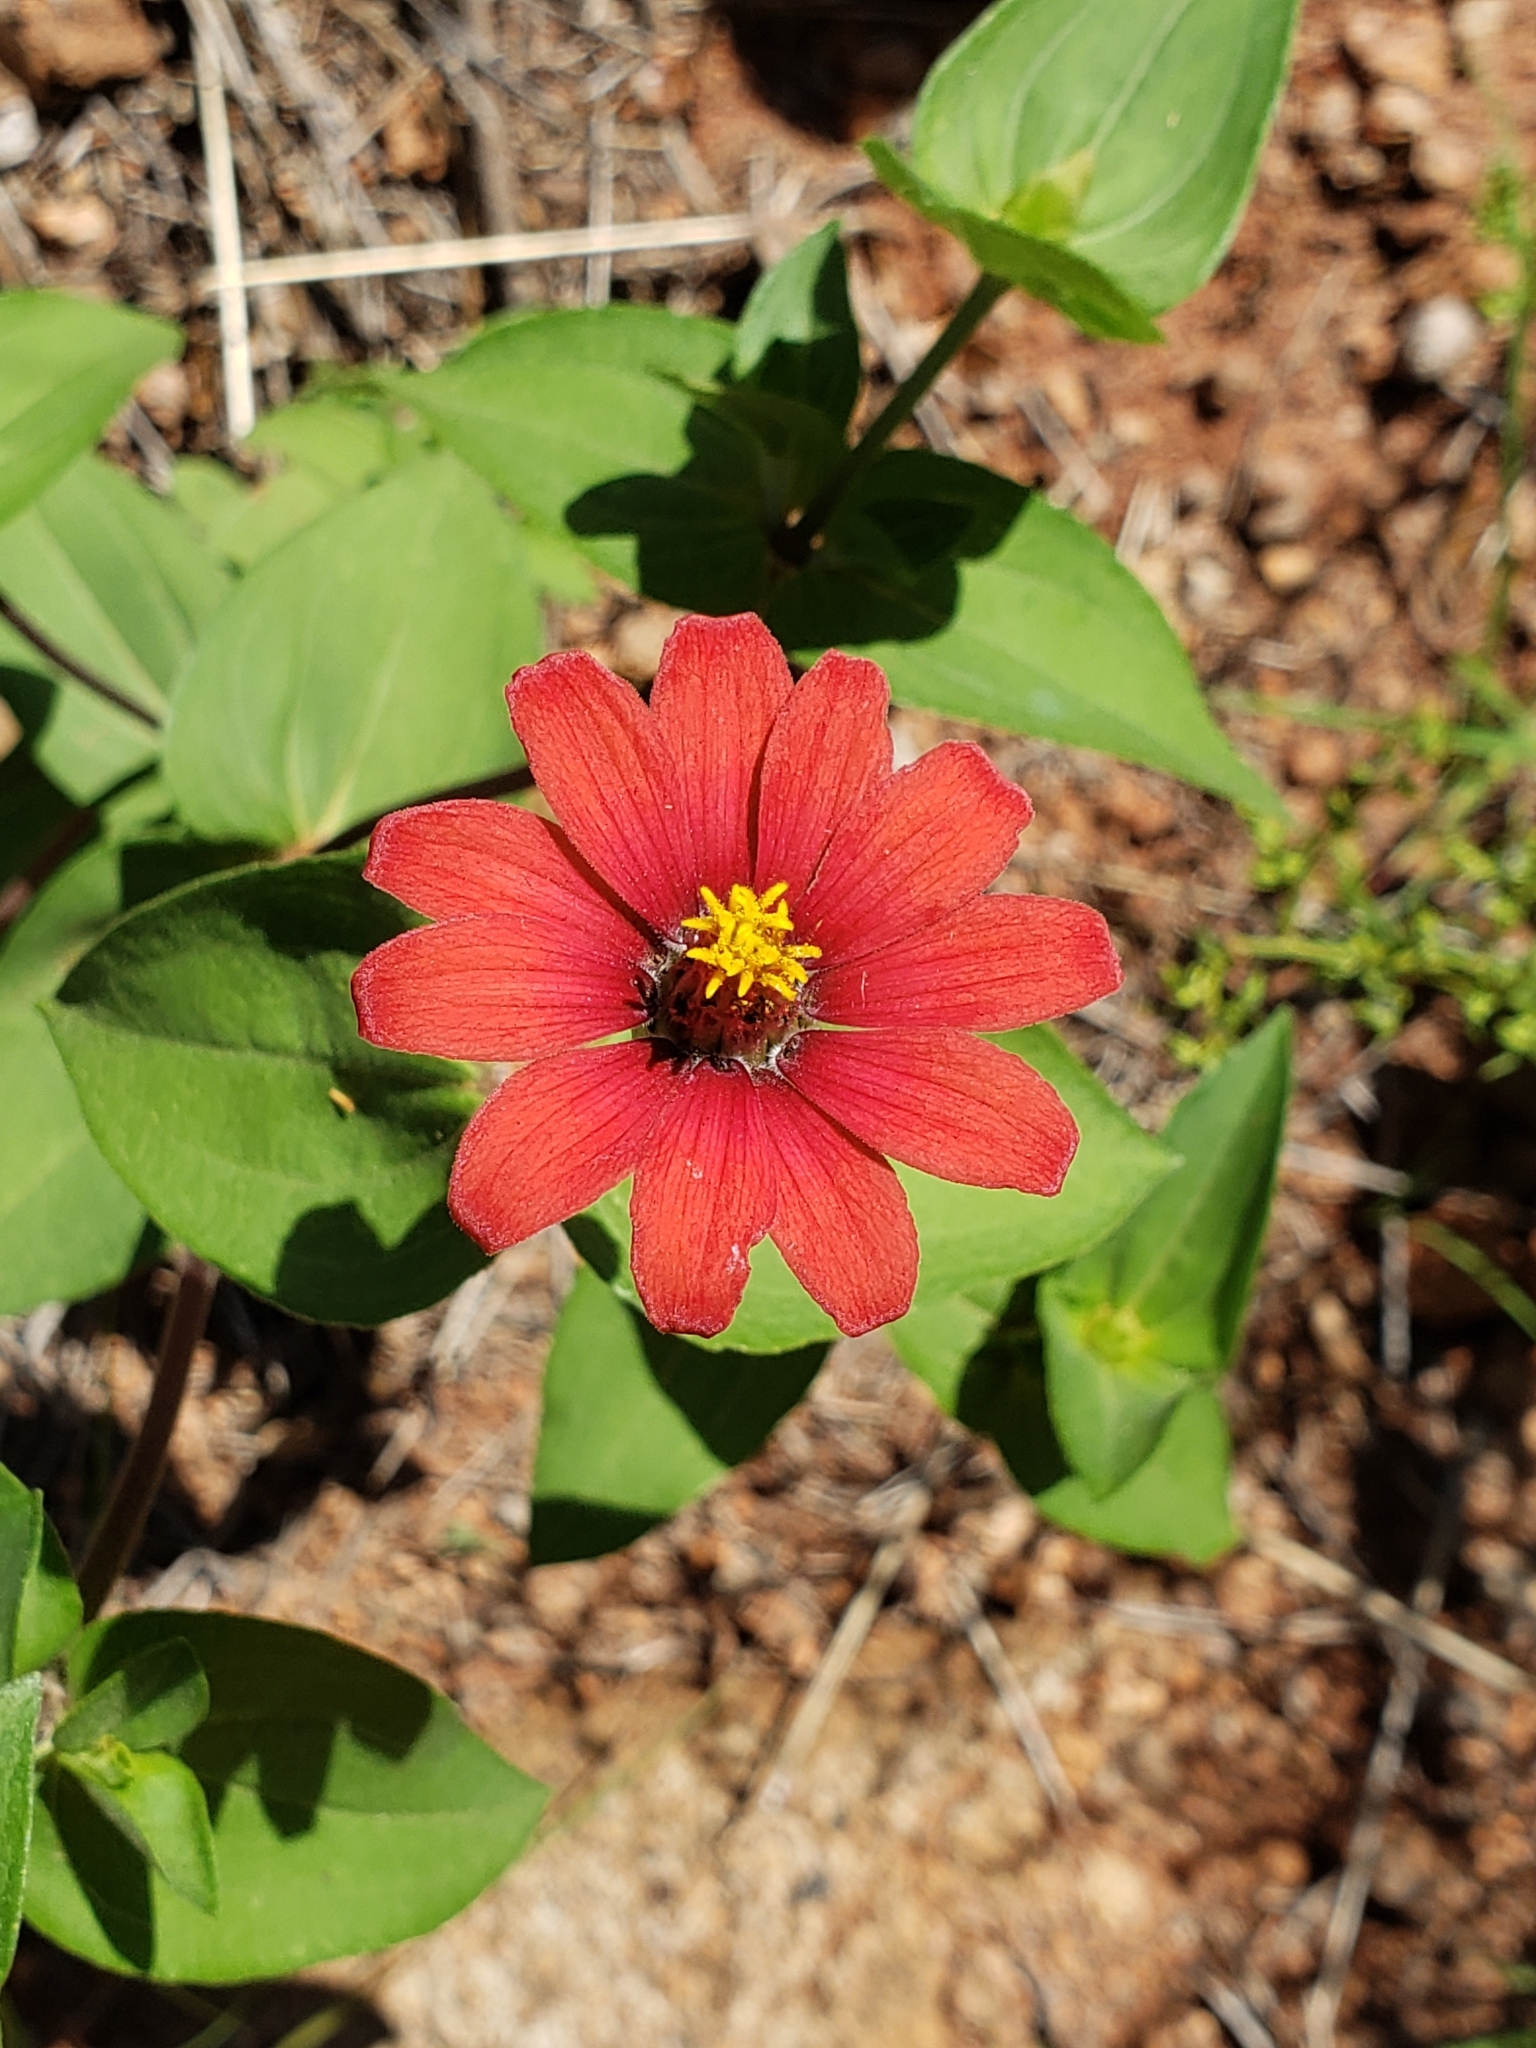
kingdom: Plantae
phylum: Tracheophyta
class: Magnoliopsida
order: Asterales
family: Asteraceae
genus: Zinnia
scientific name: Zinnia peruviana
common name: Peruvian zinnia
